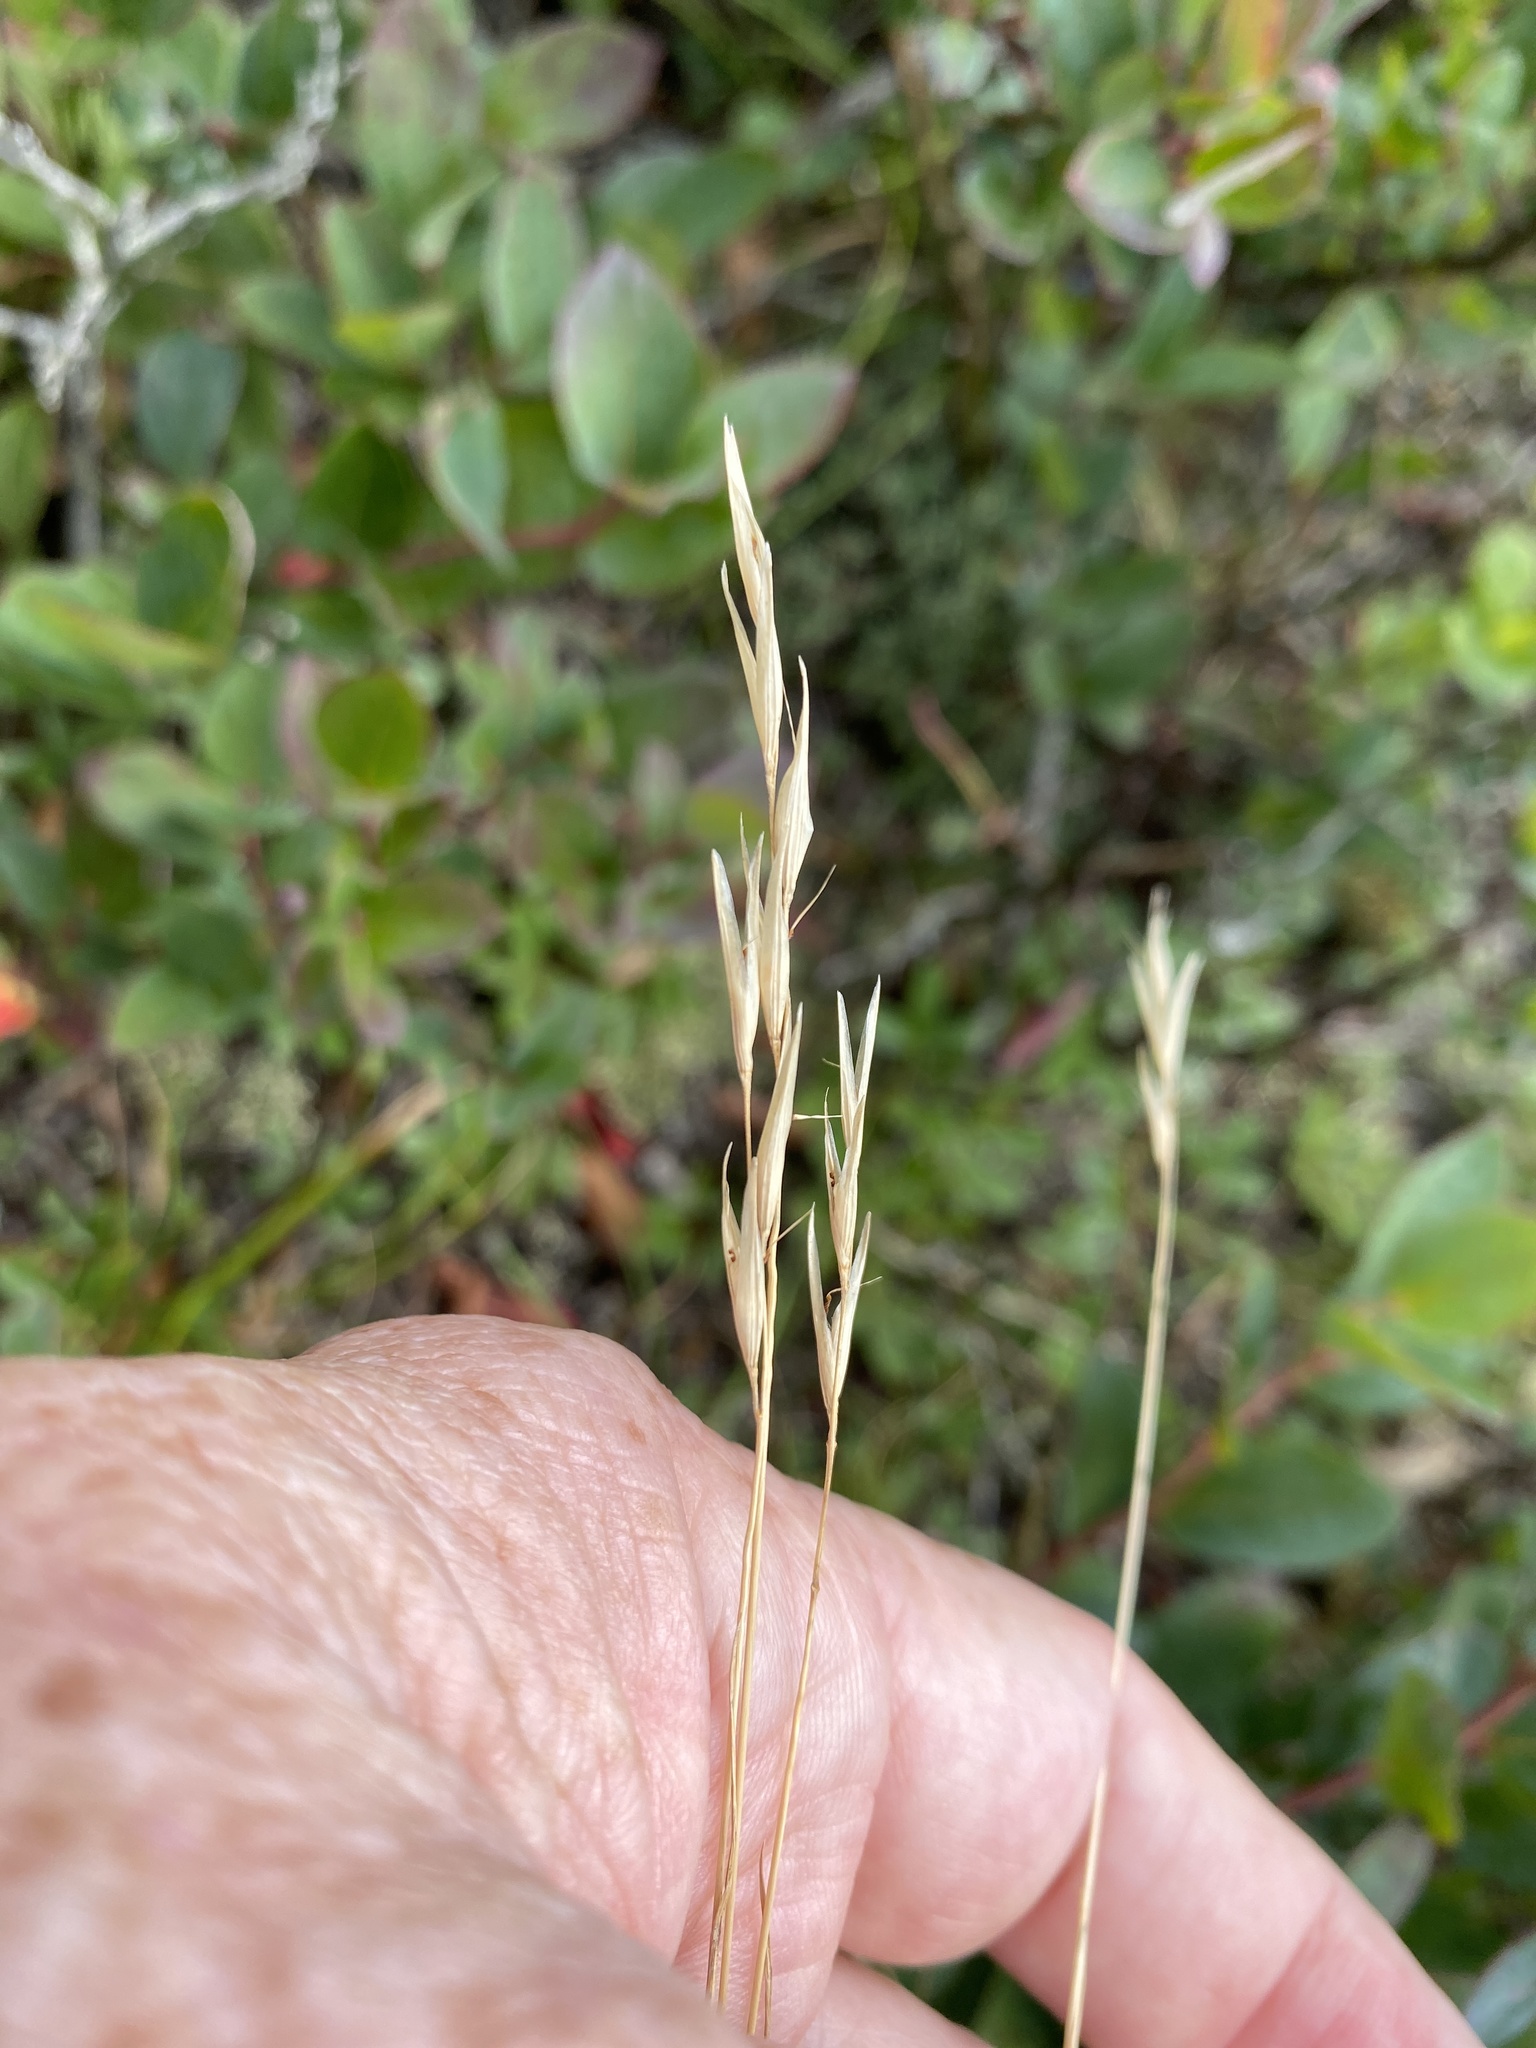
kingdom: Plantae
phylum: Tracheophyta
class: Liliopsida
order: Poales
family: Poaceae
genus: Danthonia
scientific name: Danthonia spicata
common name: Common wild oatgrass
